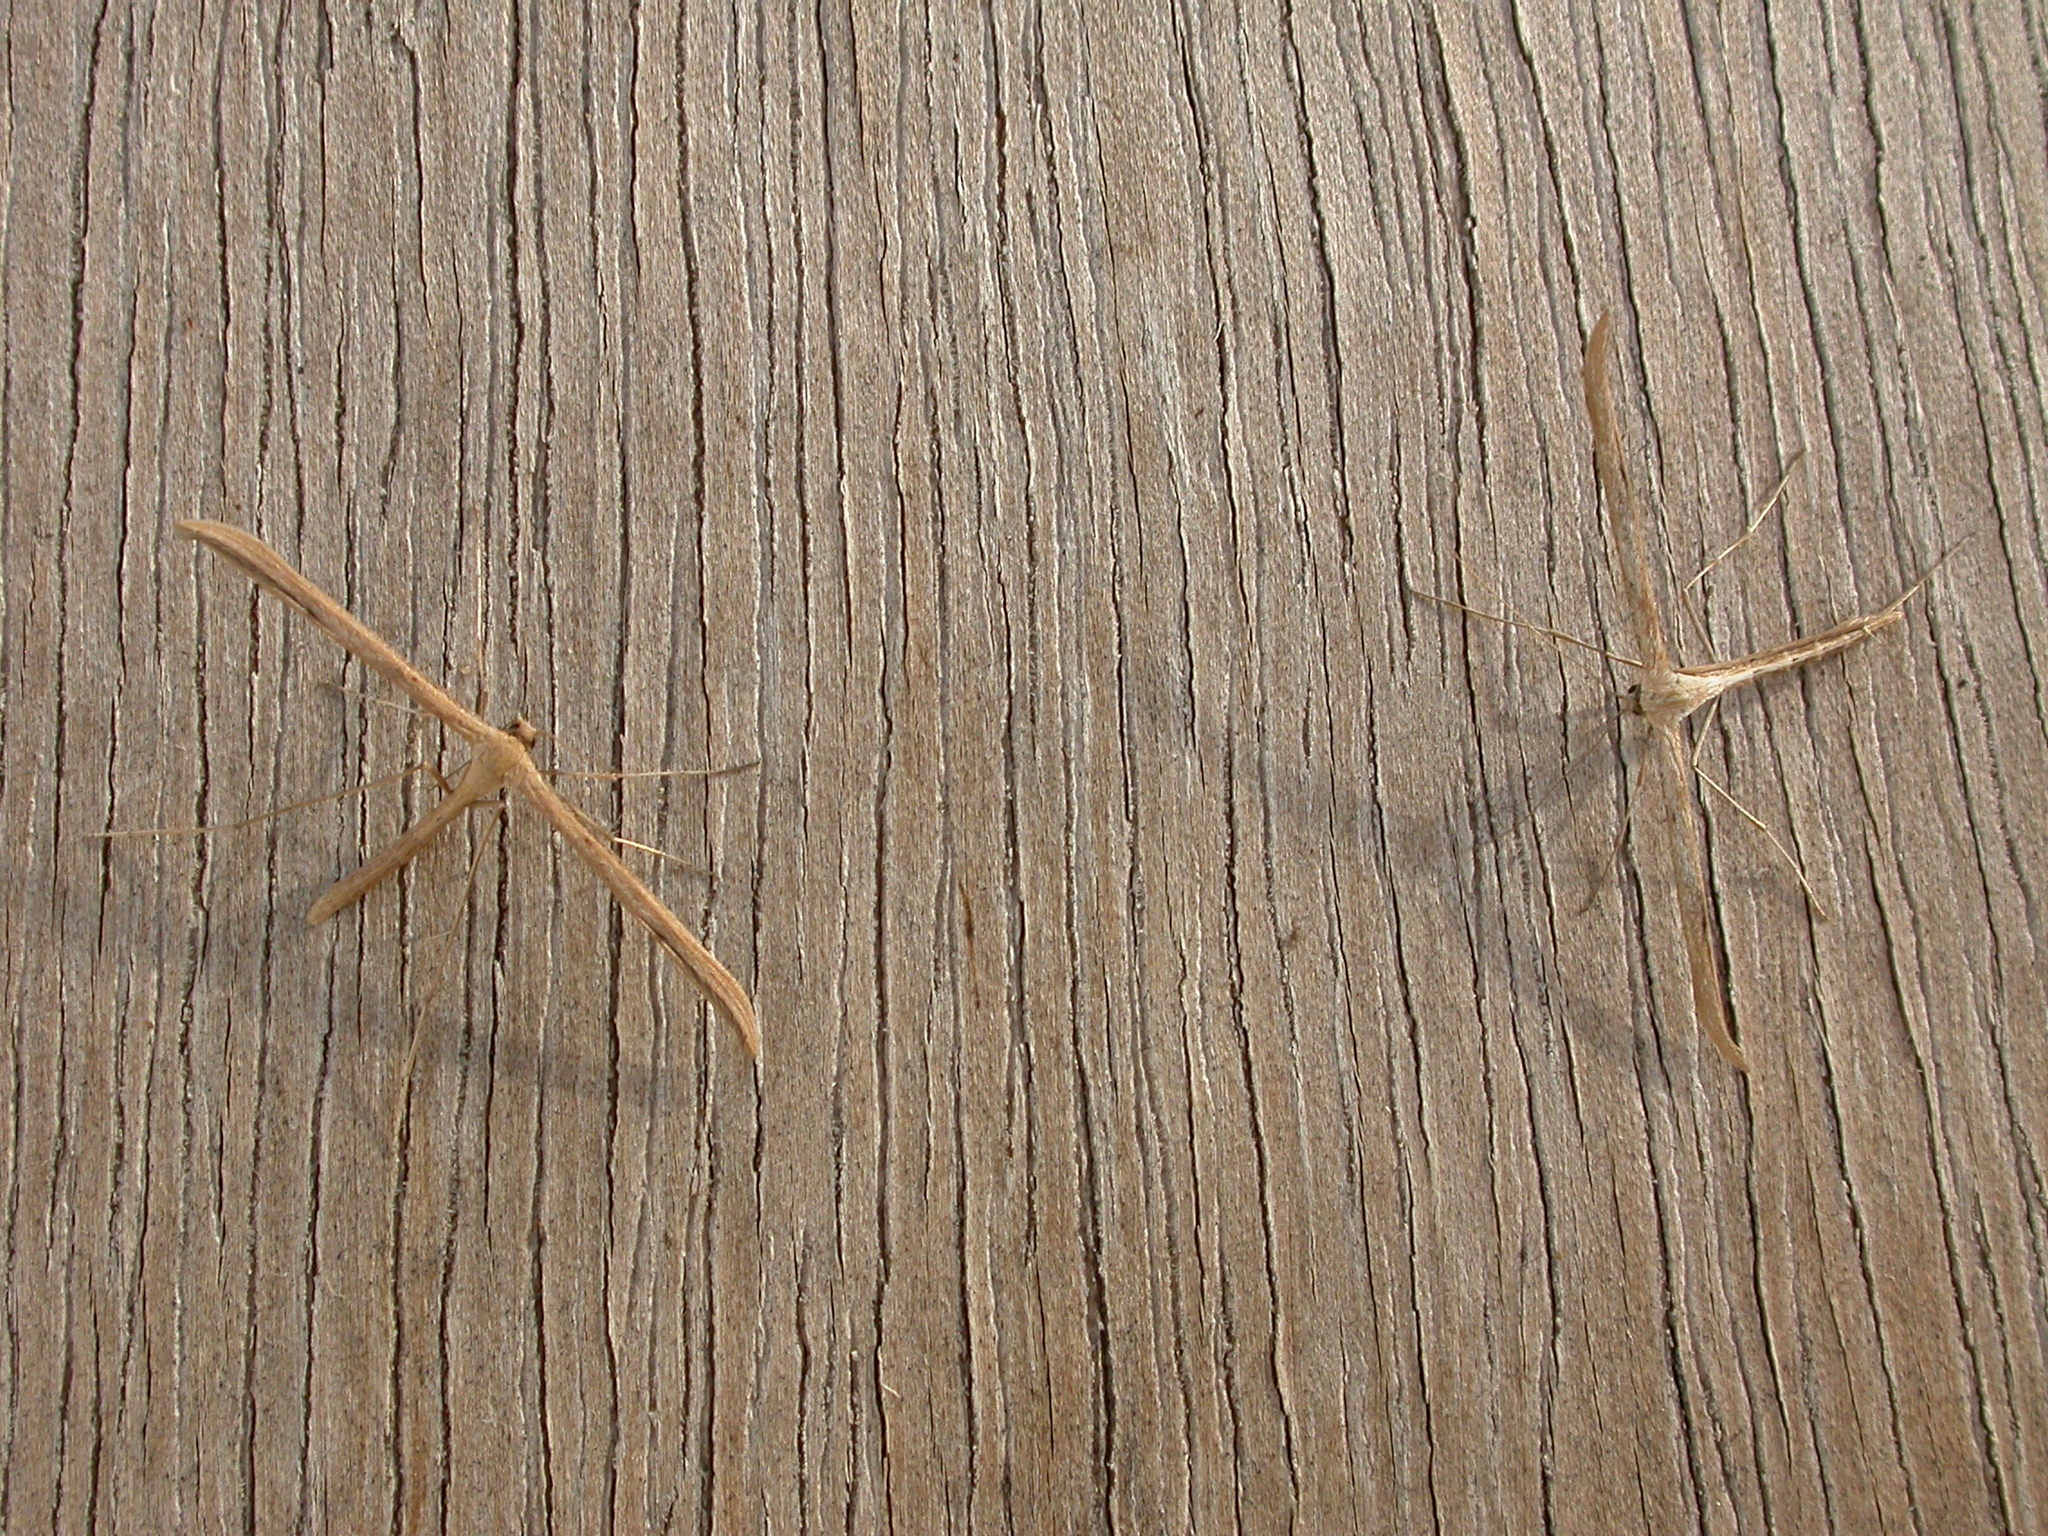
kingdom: Animalia
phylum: Arthropoda
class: Insecta
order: Lepidoptera
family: Pterophoridae
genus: Emmelina
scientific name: Emmelina monodactyla
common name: Common plume
